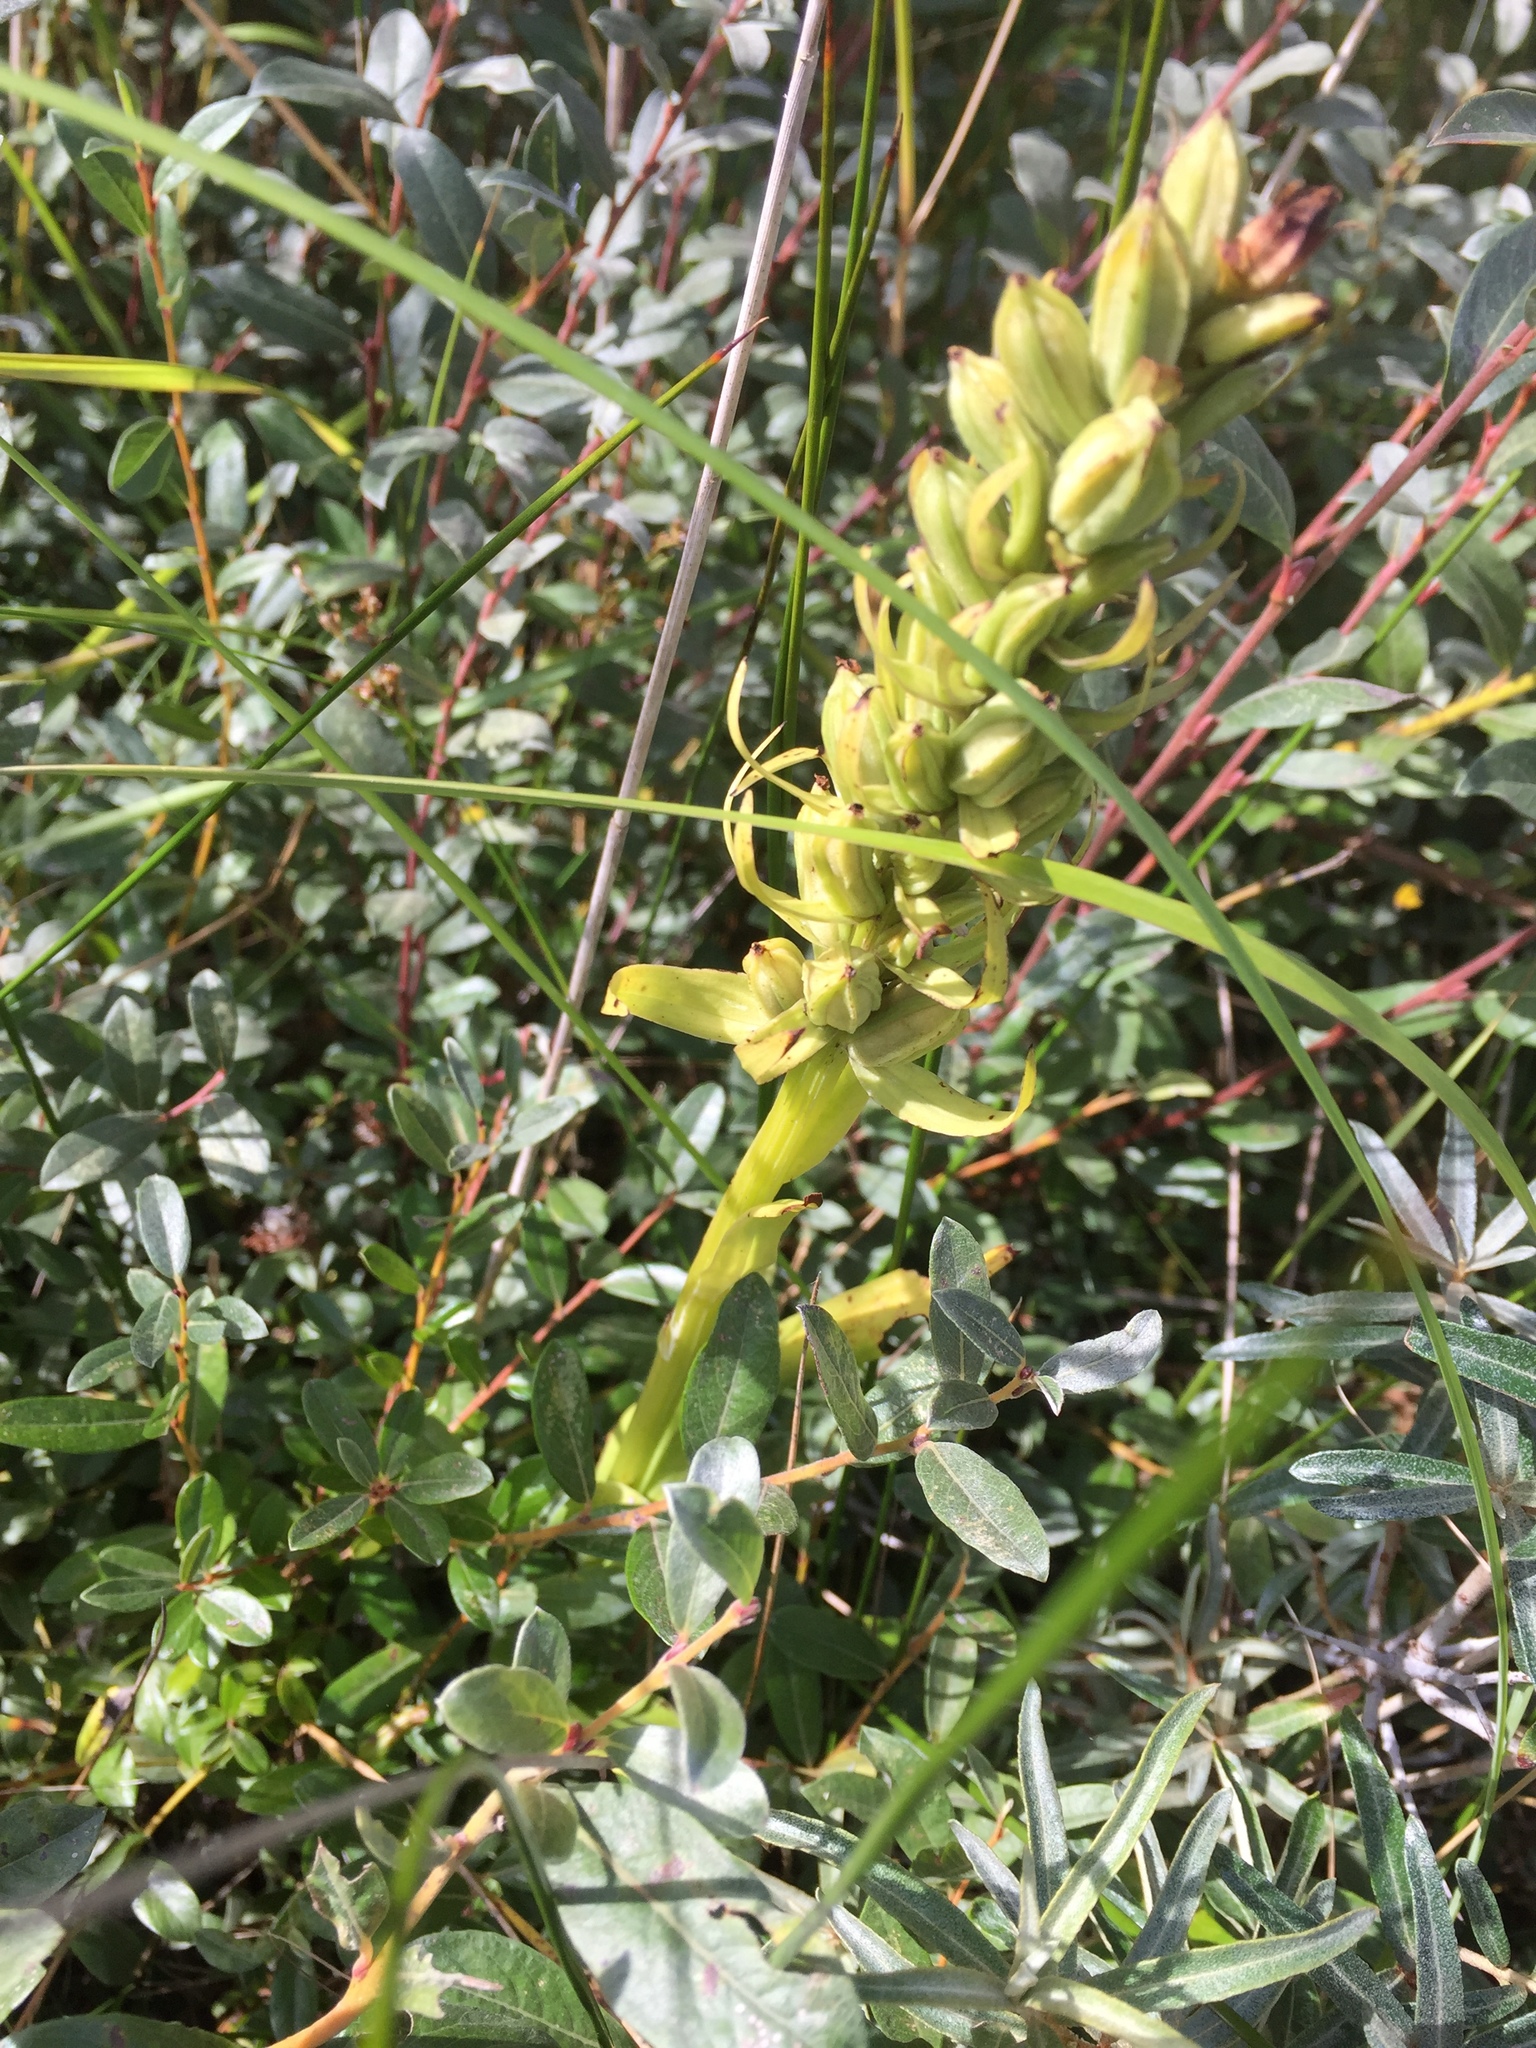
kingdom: Plantae
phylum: Tracheophyta
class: Liliopsida
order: Asparagales
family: Orchidaceae
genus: Dactylorhiza
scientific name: Dactylorhiza viridis
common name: Longbract frog orchid
